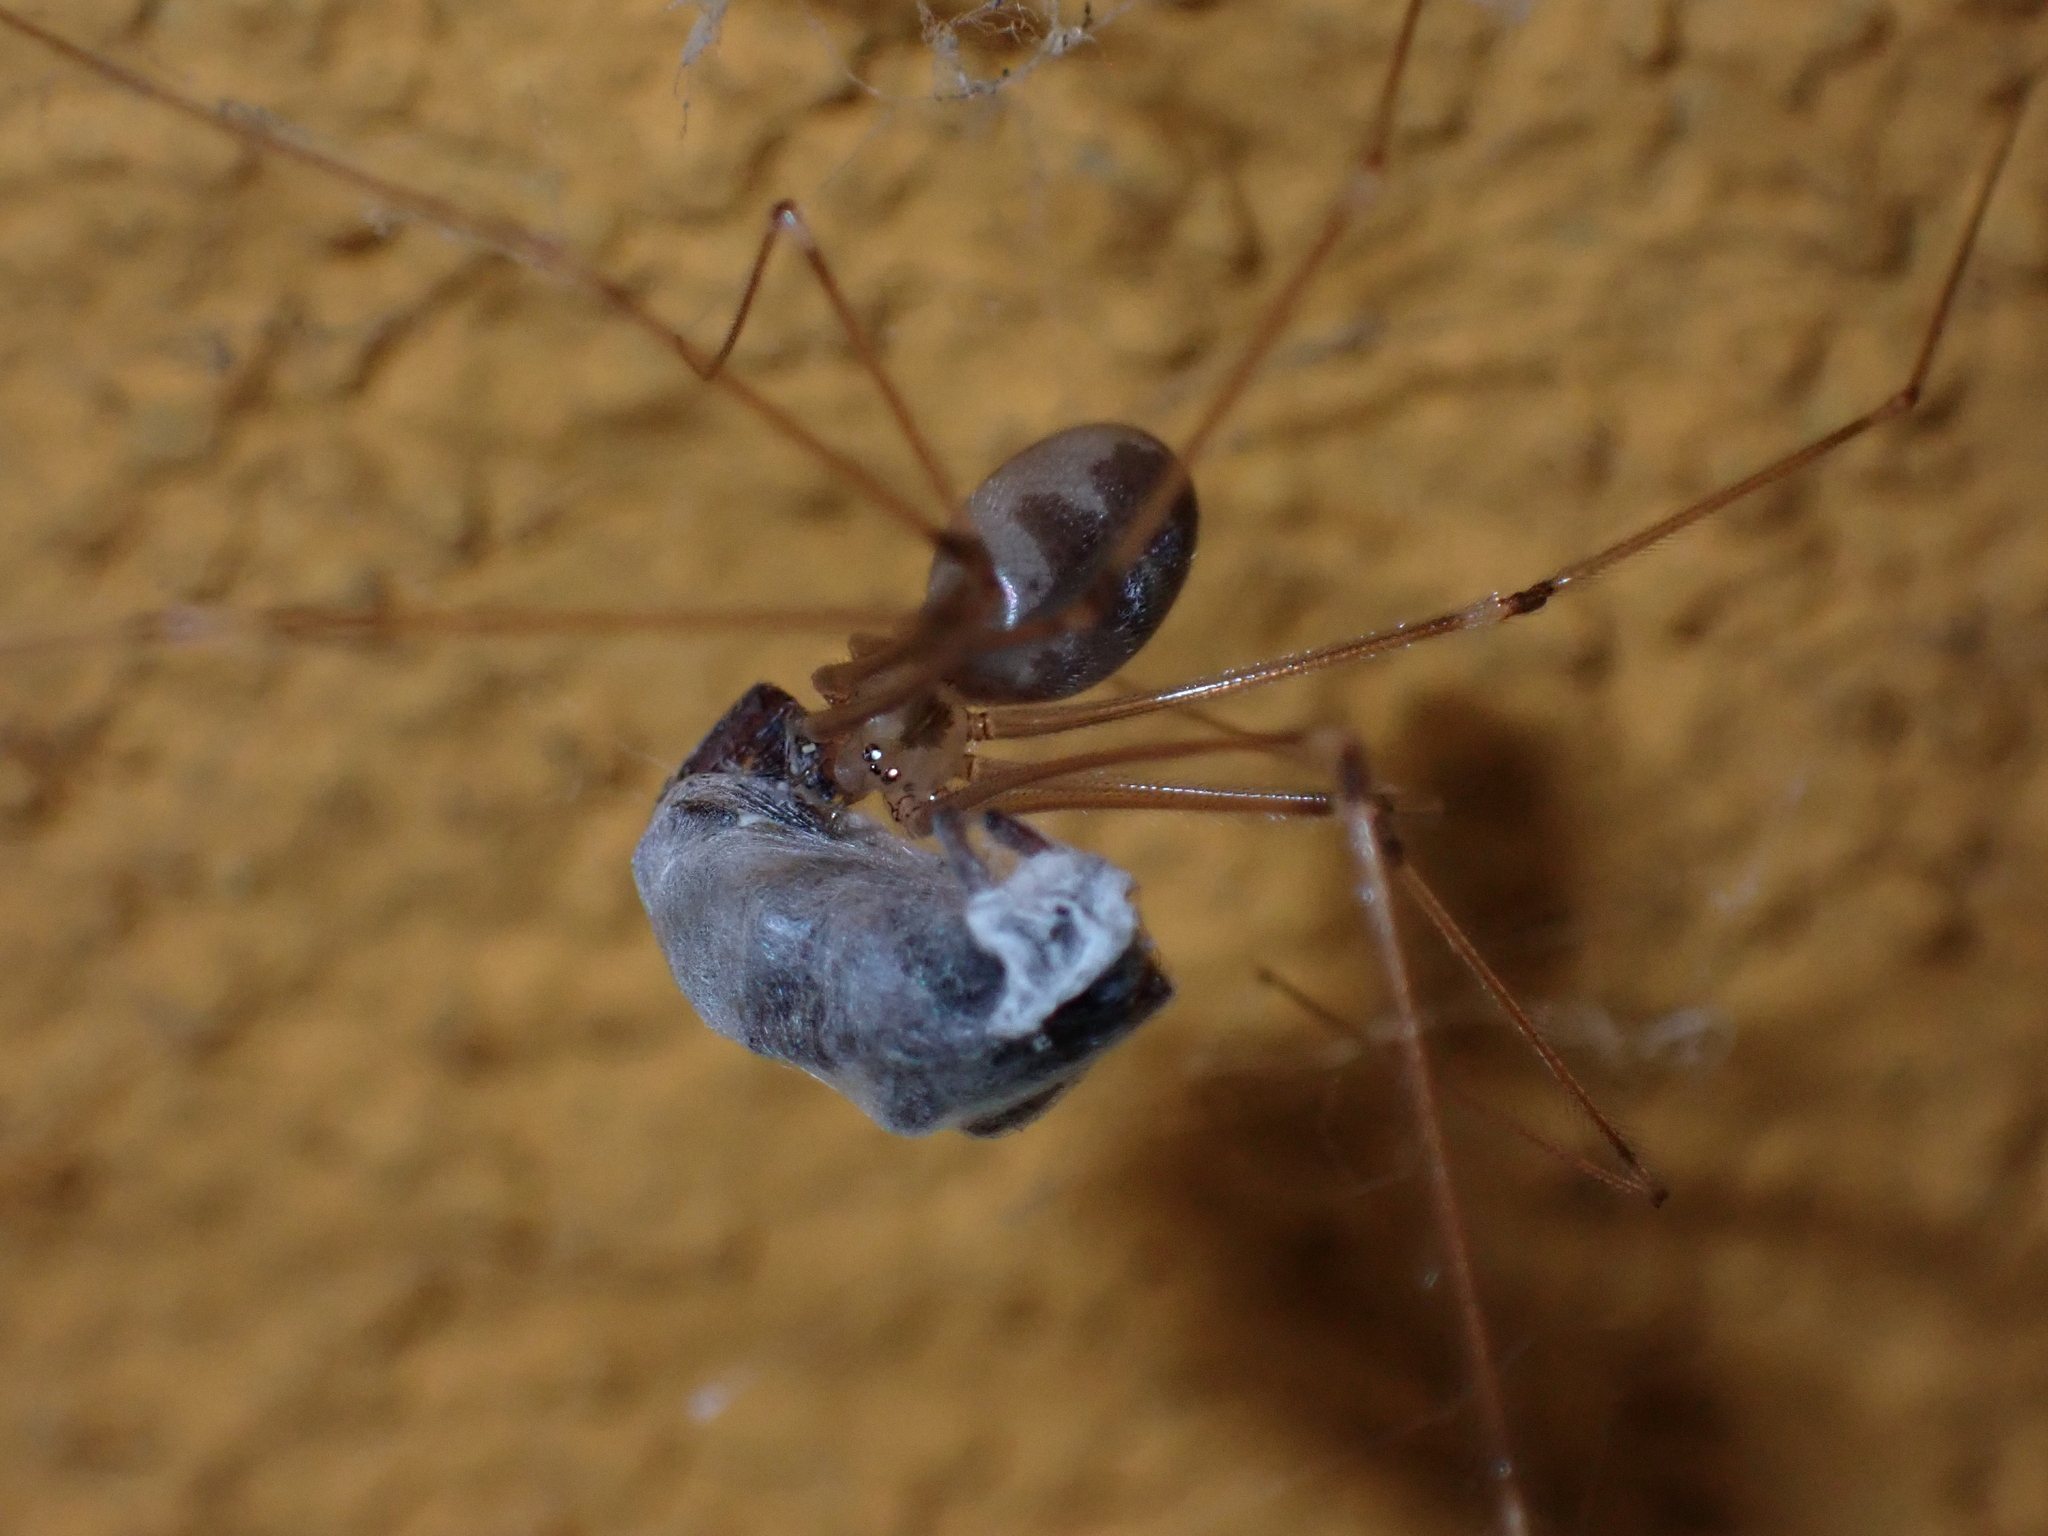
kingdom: Animalia
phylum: Arthropoda
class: Arachnida
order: Araneae
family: Pholcidae
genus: Pholcus
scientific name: Pholcus phalangioides
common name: Longbodied cellar spider
